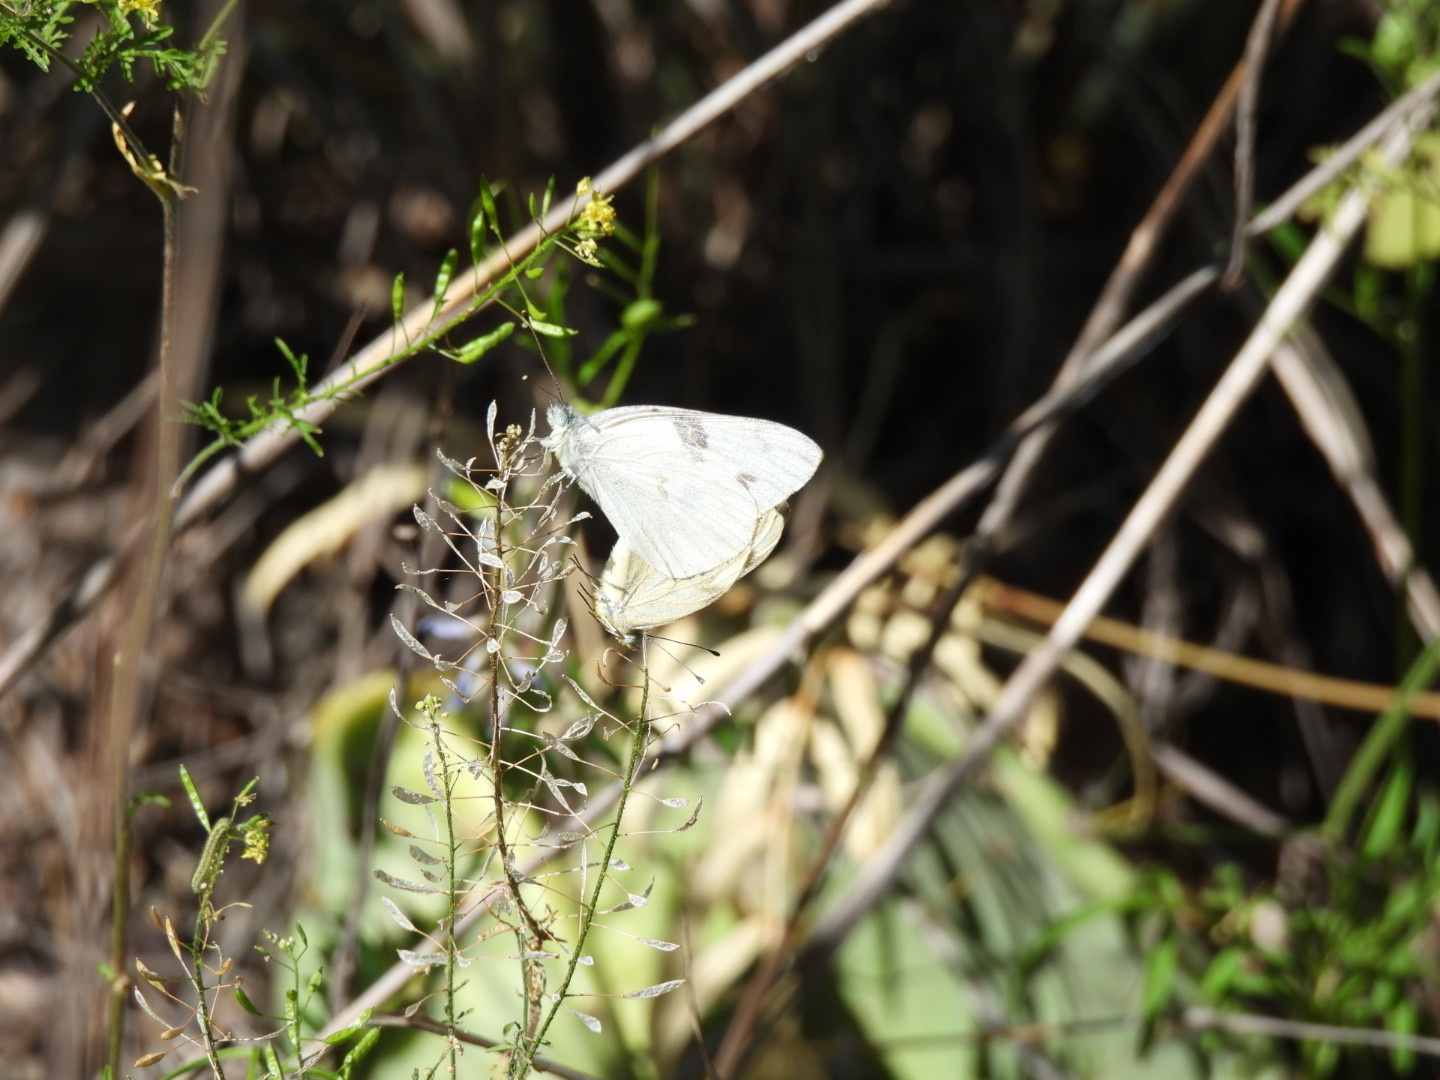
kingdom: Animalia
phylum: Arthropoda
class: Insecta
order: Lepidoptera
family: Pieridae
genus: Pontia
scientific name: Pontia protodice
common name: Checkered white
